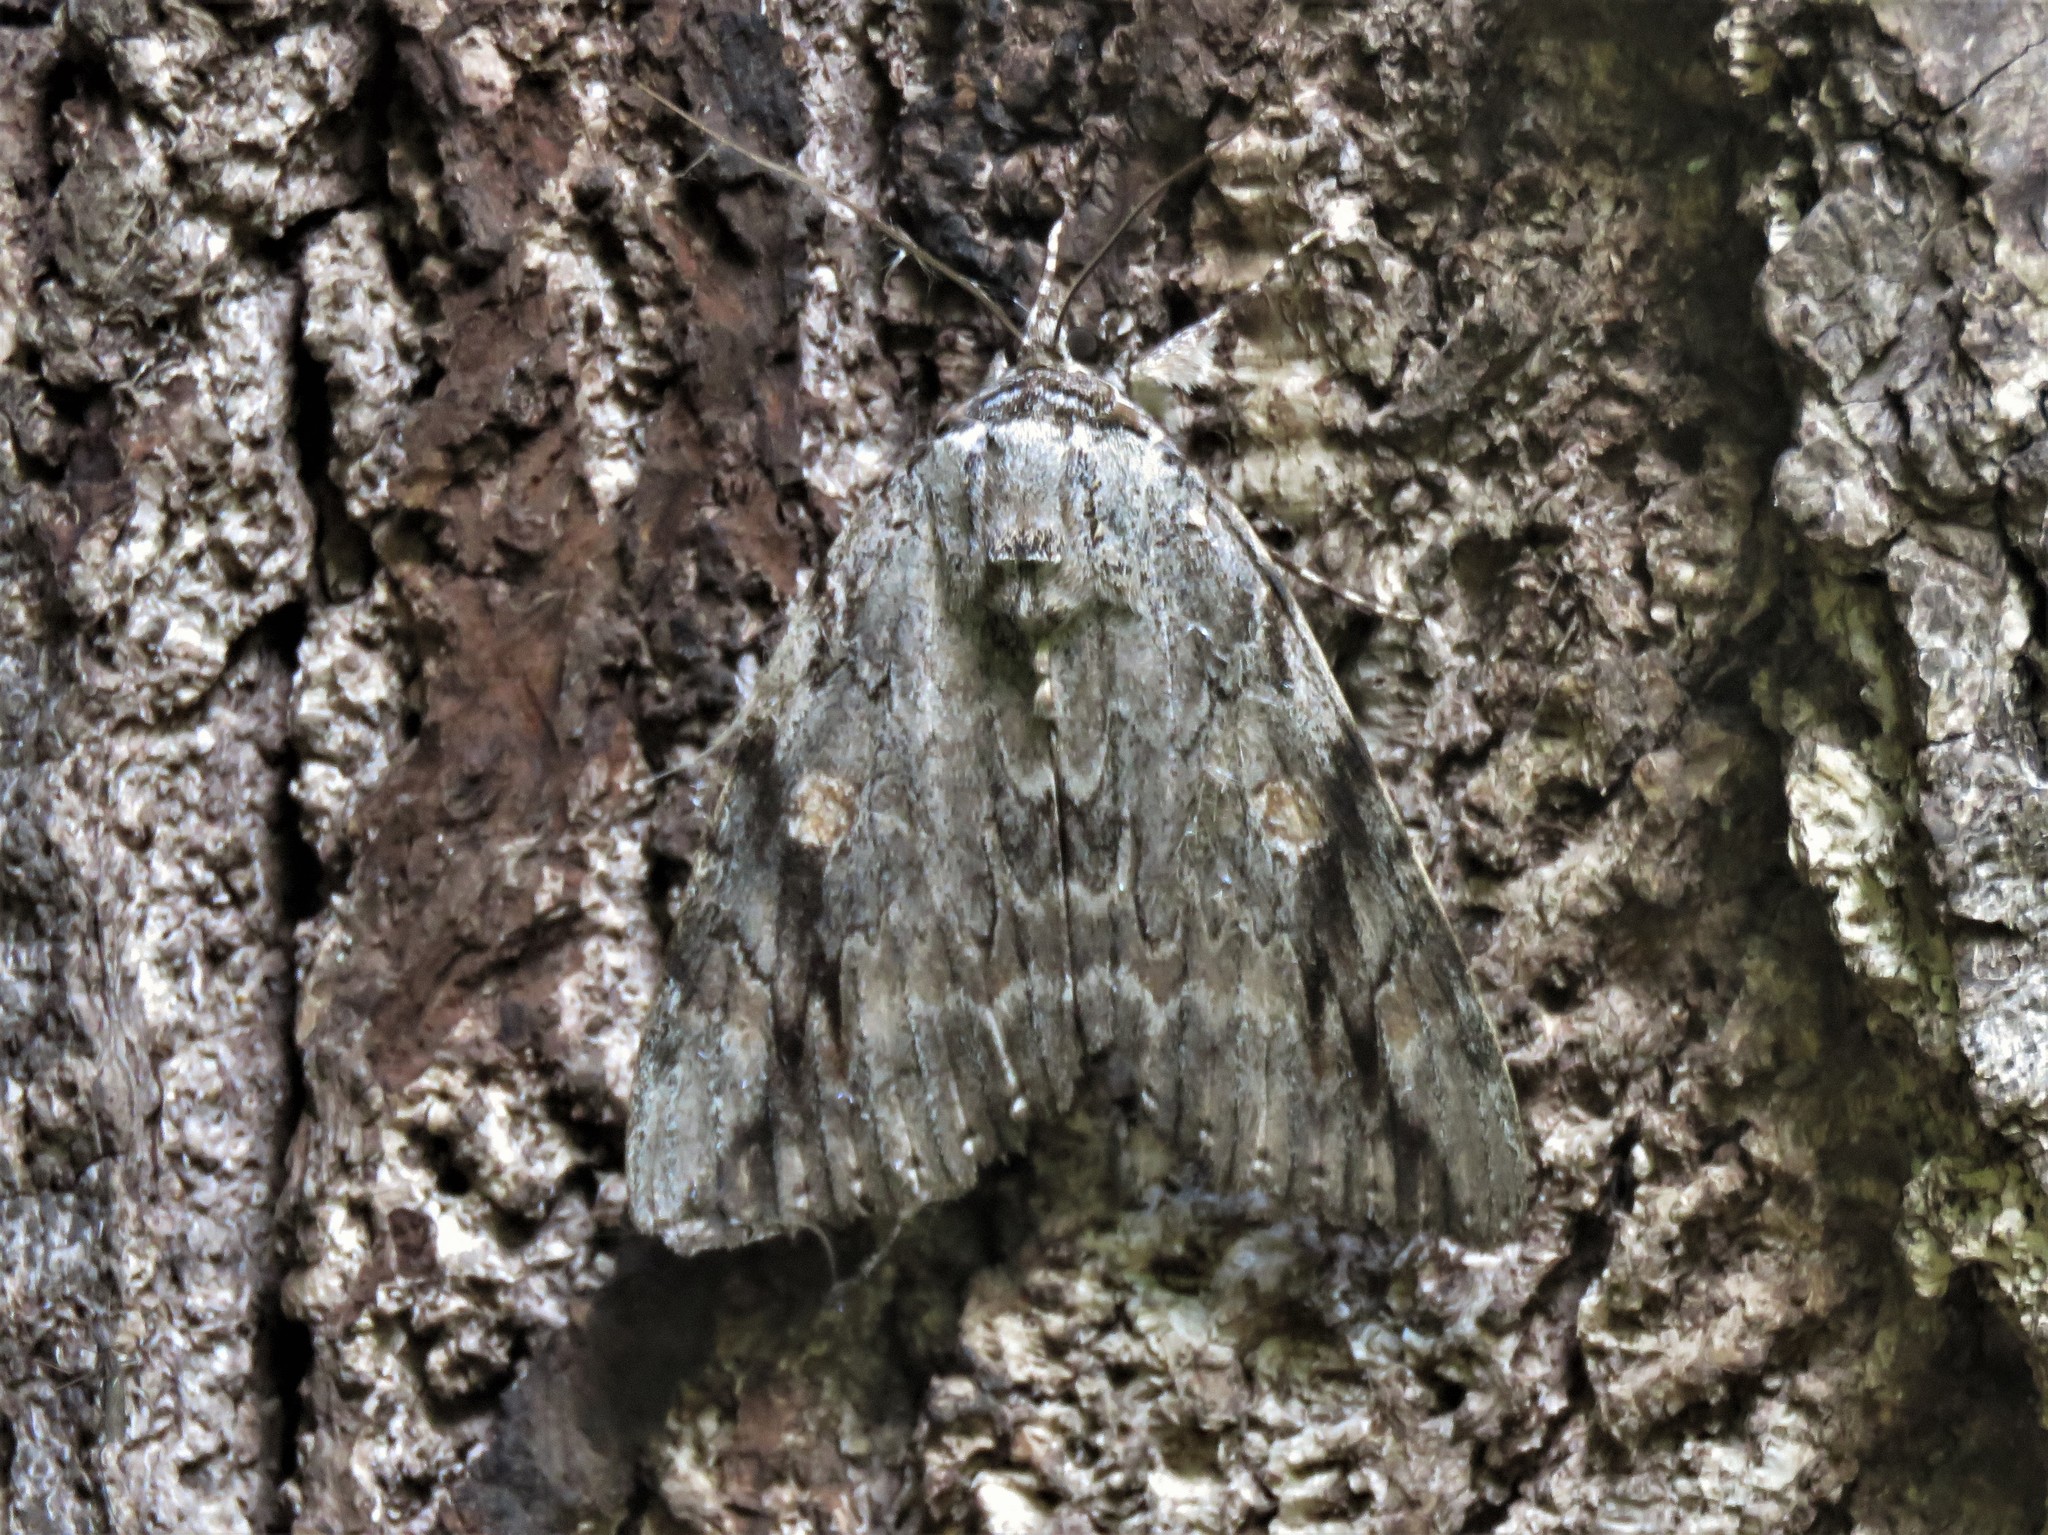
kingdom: Animalia
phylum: Arthropoda
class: Insecta
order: Lepidoptera
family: Erebidae
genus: Catocala
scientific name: Catocala maestosa
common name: Sad underwing
